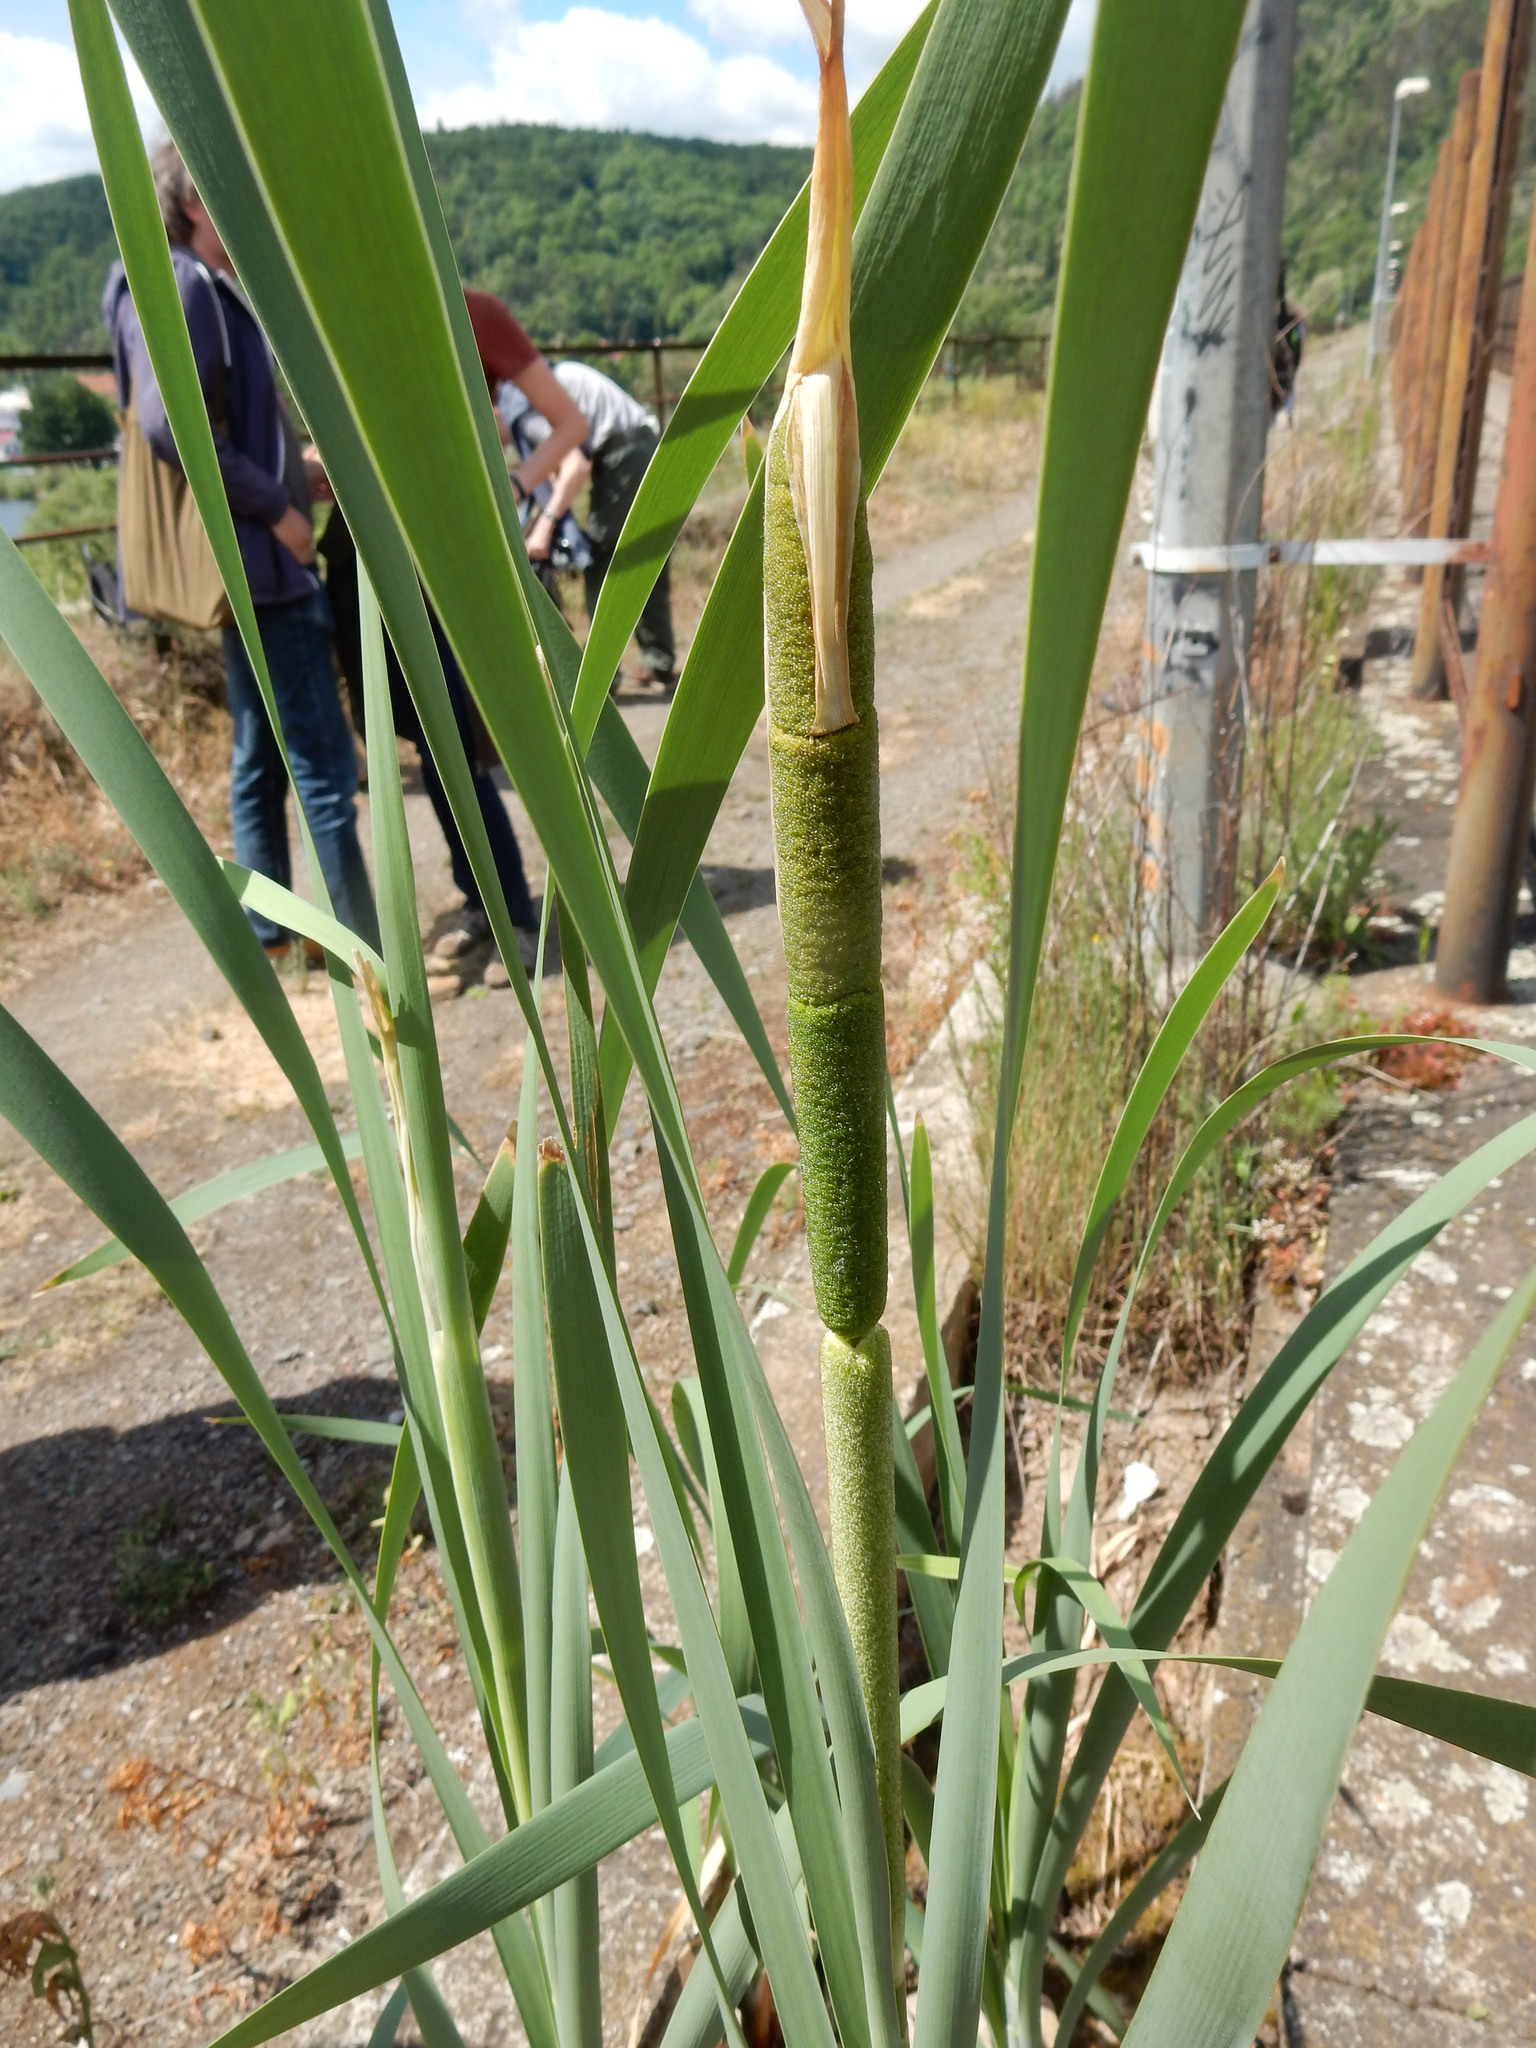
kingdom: Plantae
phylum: Tracheophyta
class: Liliopsida
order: Poales
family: Typhaceae
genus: Typha
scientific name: Typha latifolia
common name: Broadleaf cattail
